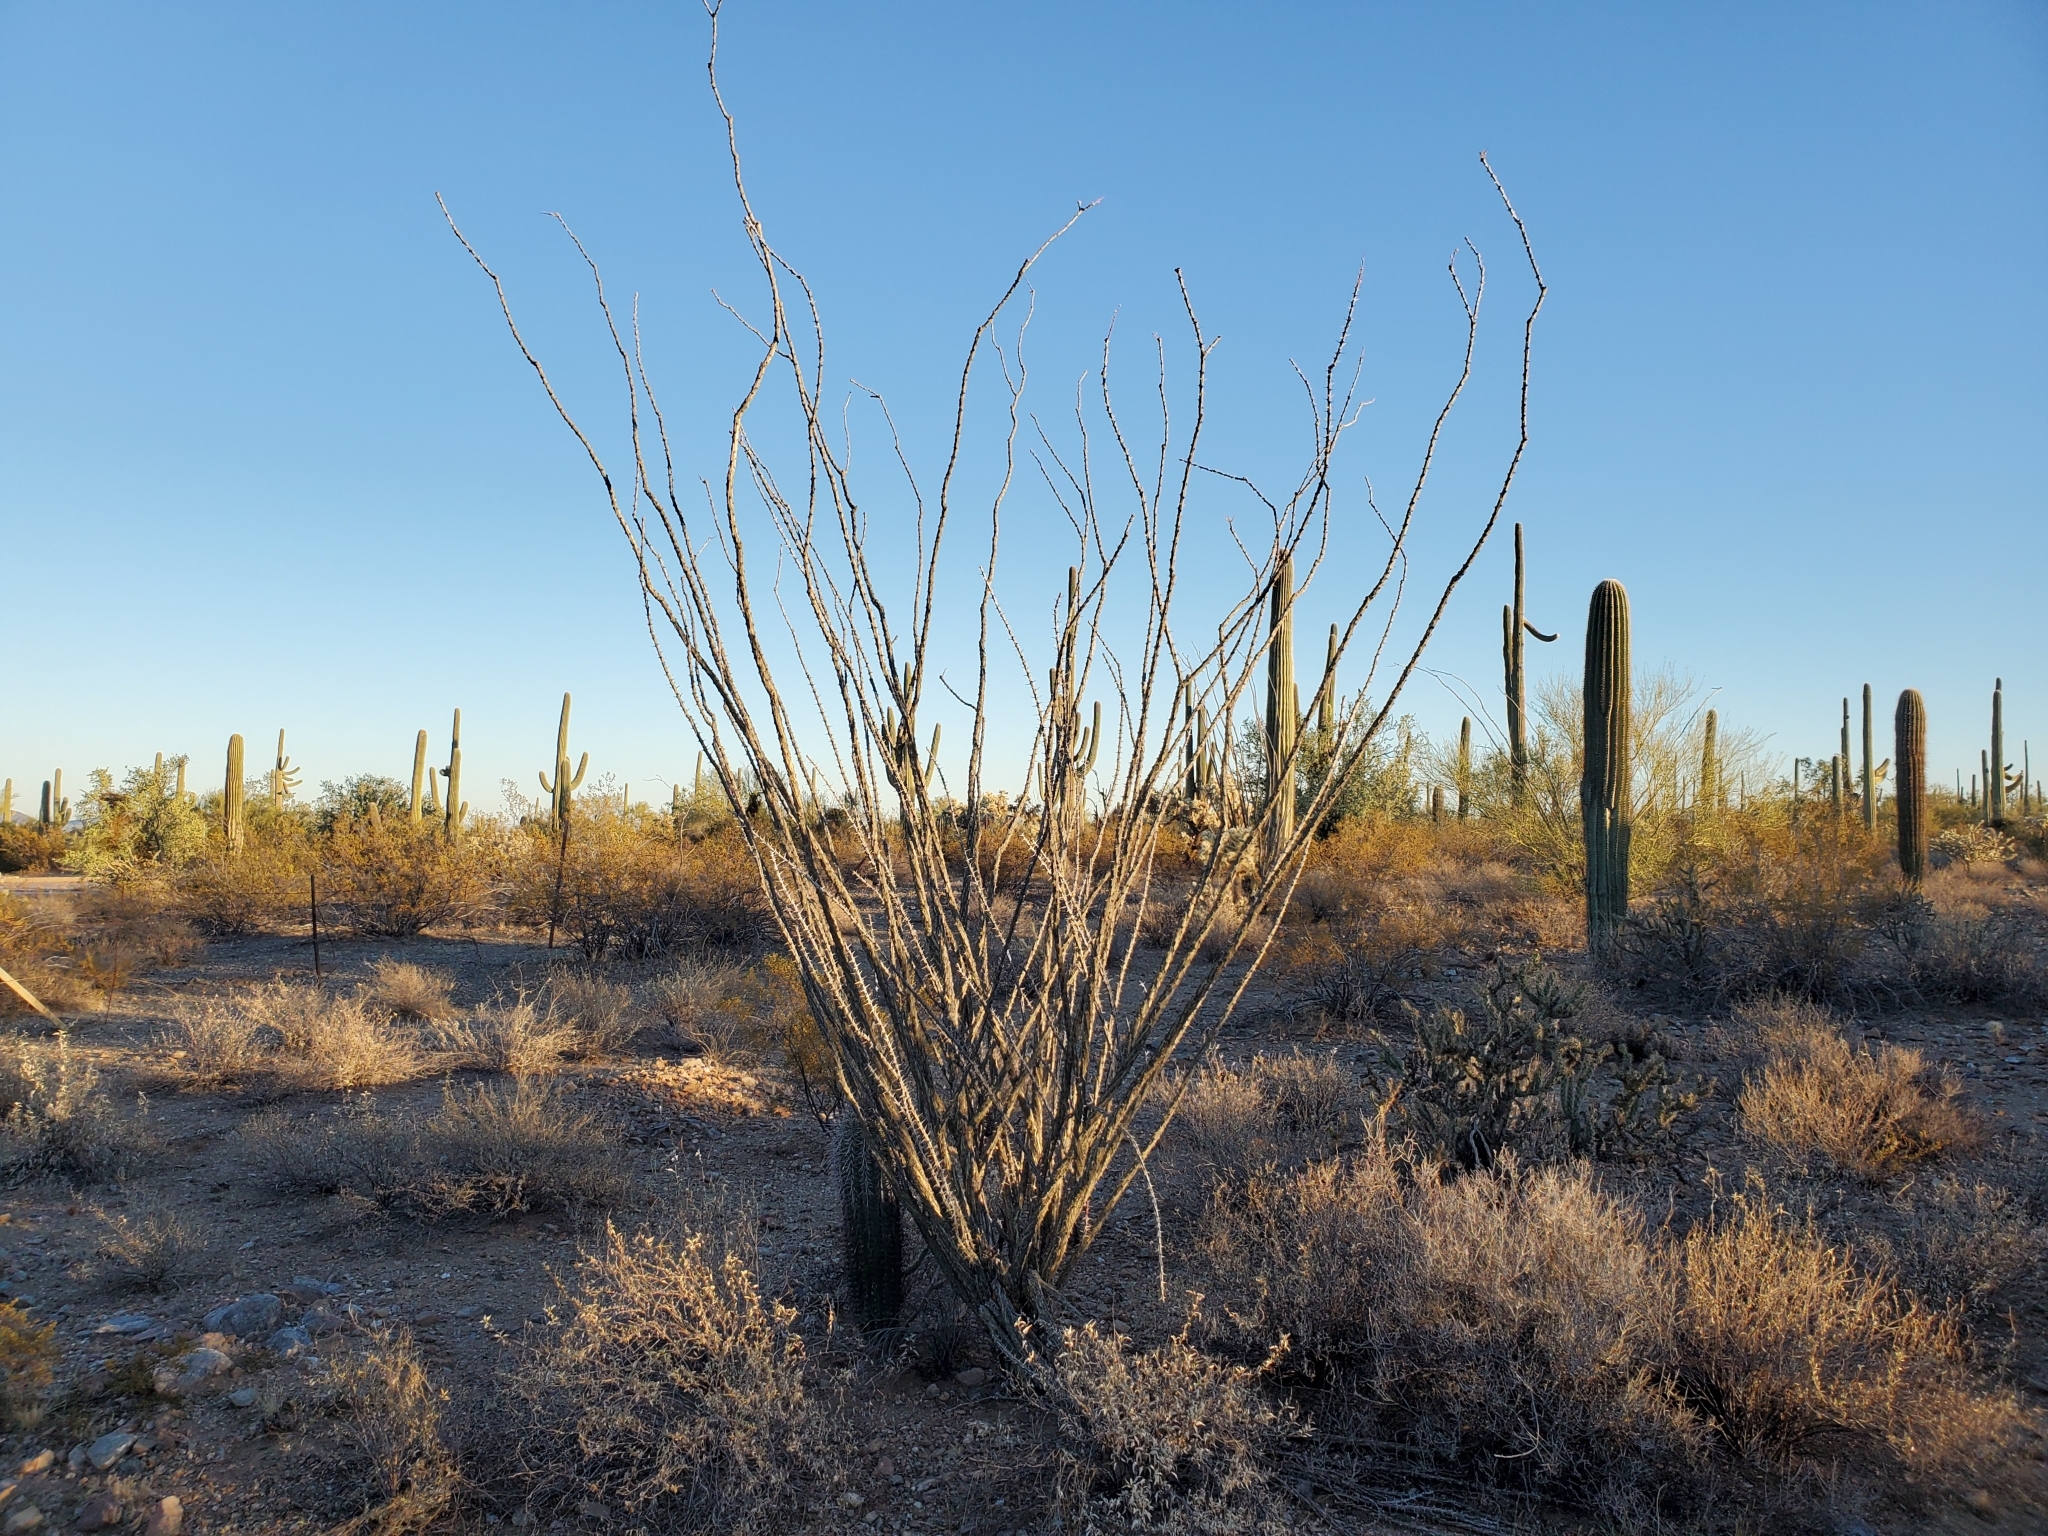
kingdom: Plantae
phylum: Tracheophyta
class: Magnoliopsida
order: Ericales
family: Fouquieriaceae
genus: Fouquieria
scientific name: Fouquieria splendens
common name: Vine-cactus
